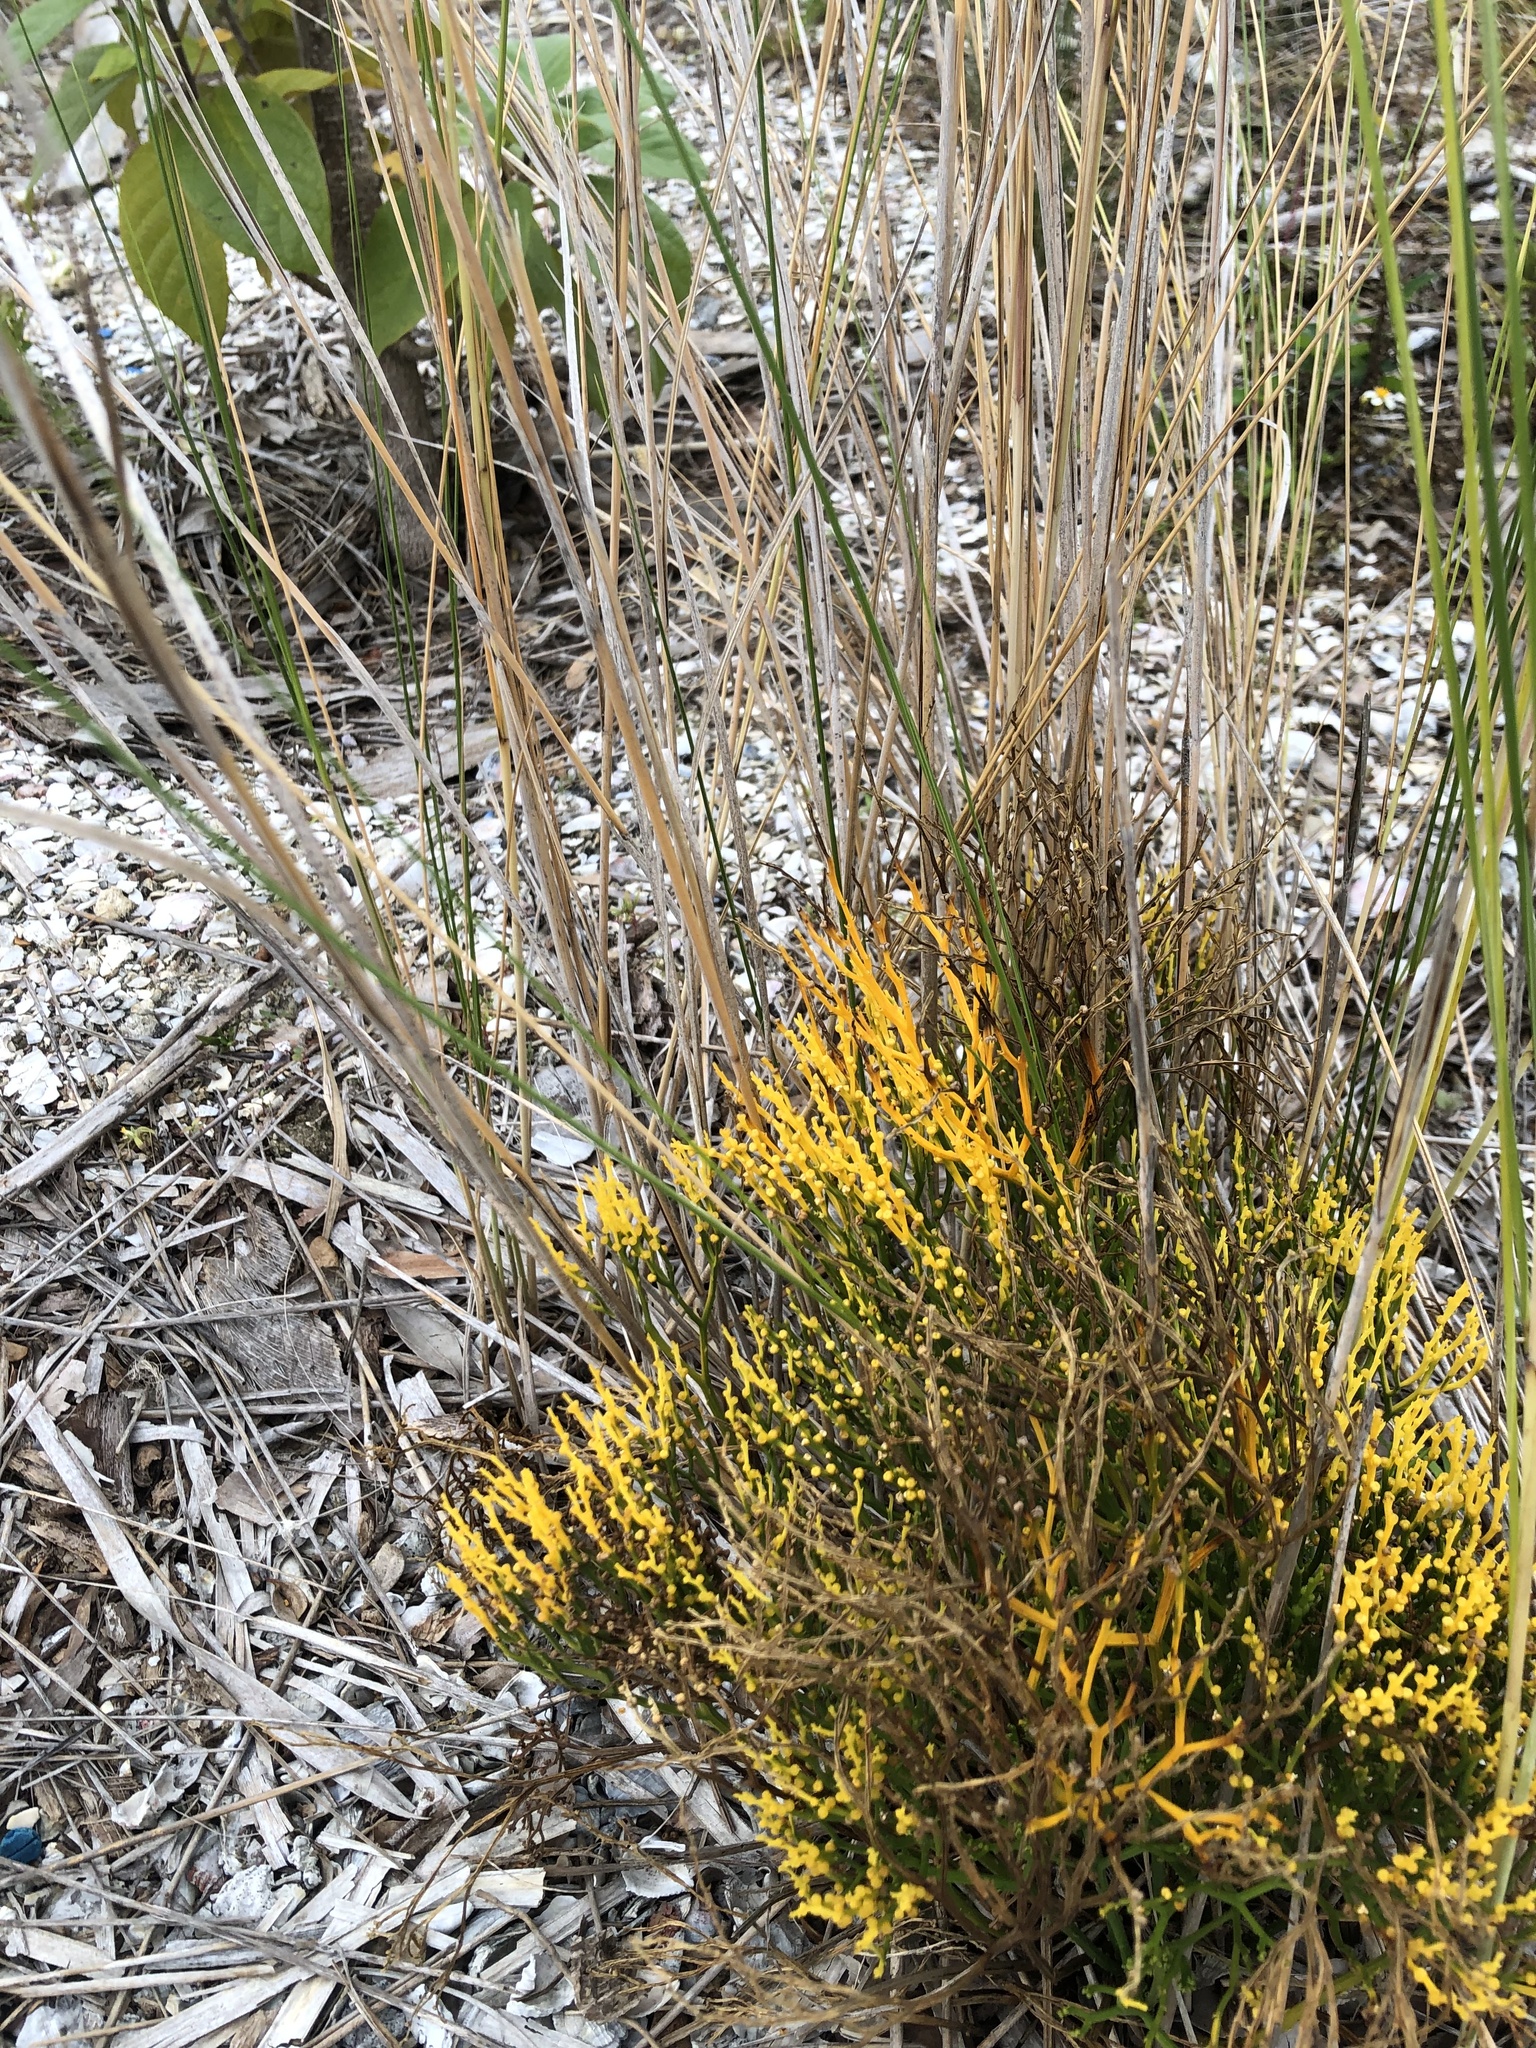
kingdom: Plantae
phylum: Tracheophyta
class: Polypodiopsida
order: Psilotales
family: Psilotaceae
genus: Psilotum
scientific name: Psilotum nudum
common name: Skeleton fork fern
